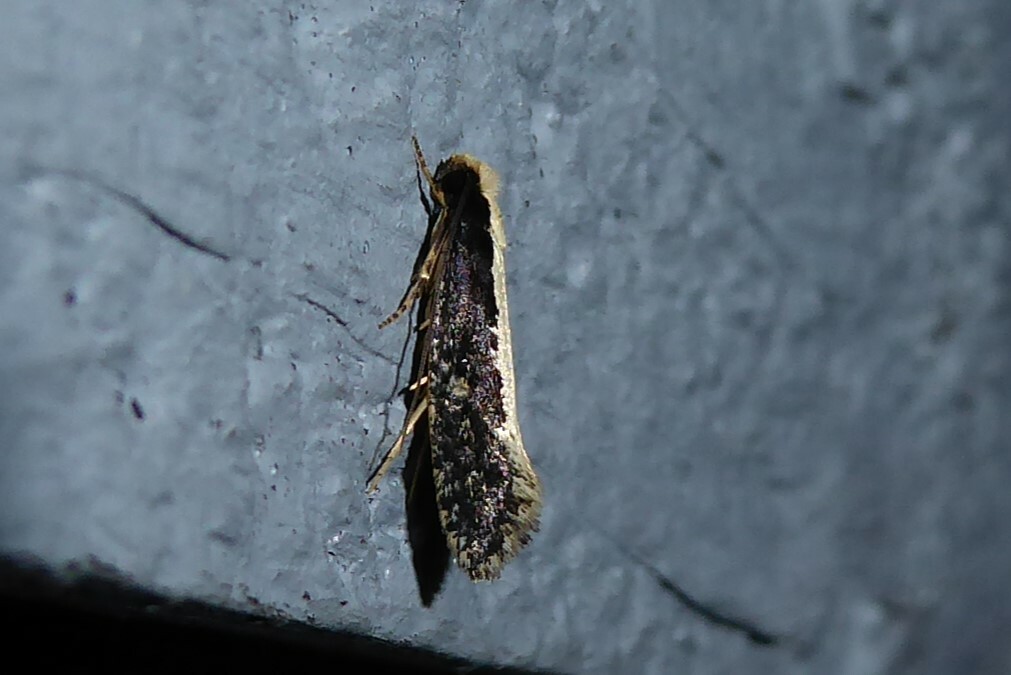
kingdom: Animalia
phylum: Arthropoda
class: Insecta
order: Lepidoptera
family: Tineidae
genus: Monopis
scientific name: Monopis ethelella
